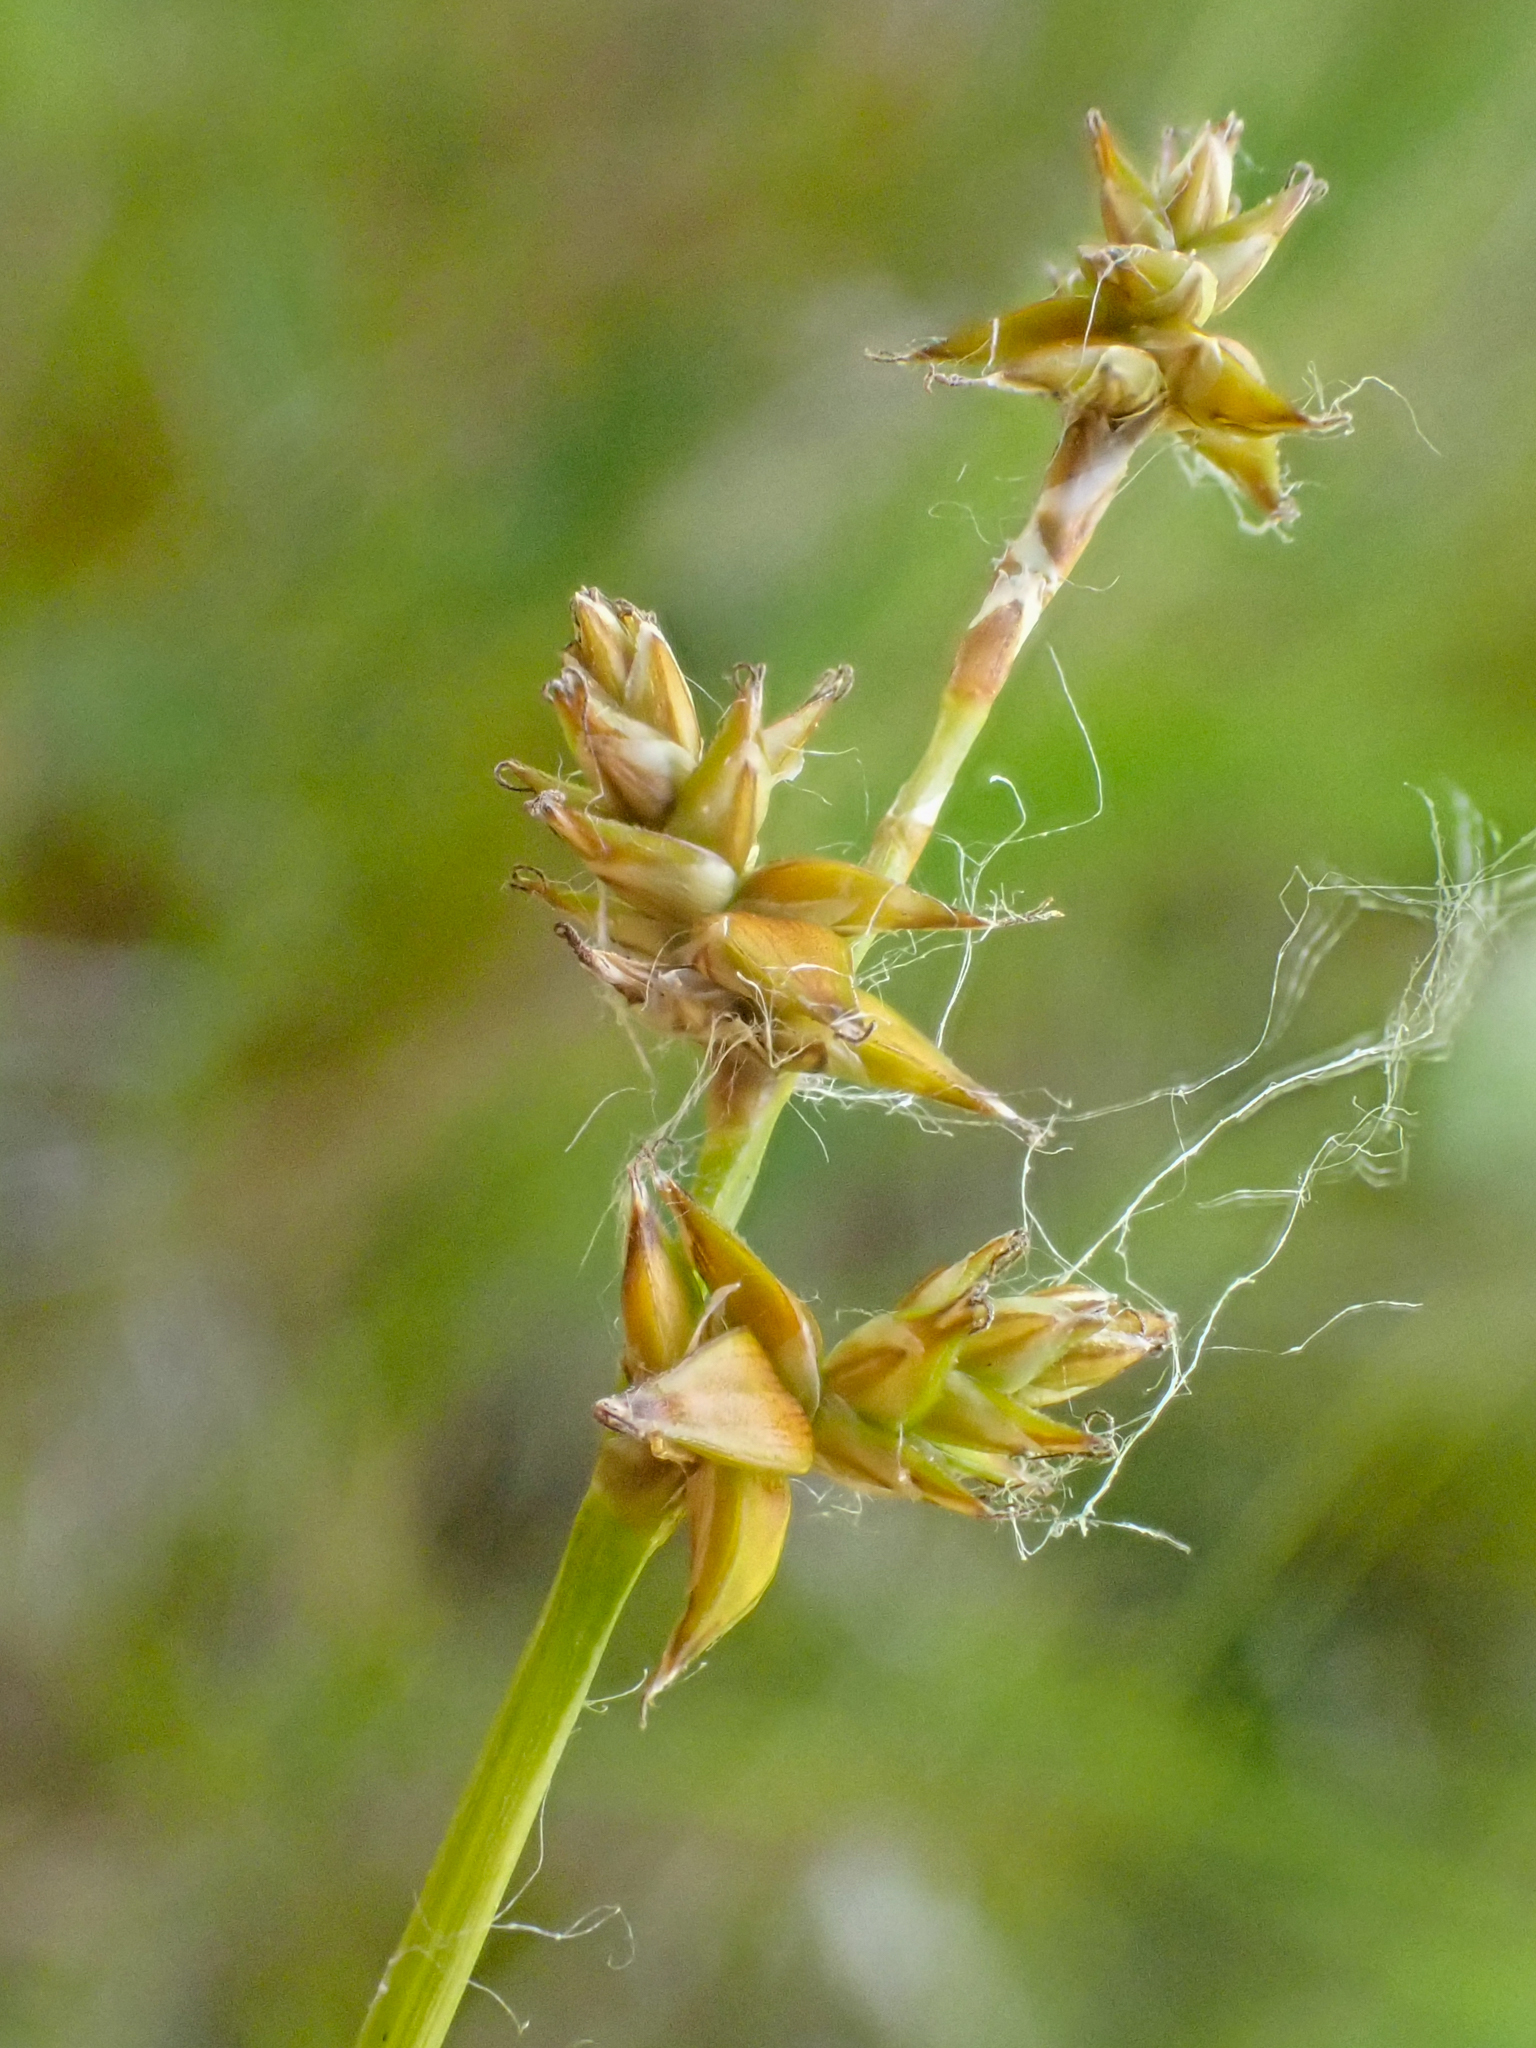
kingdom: Plantae
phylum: Tracheophyta
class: Liliopsida
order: Poales
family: Cyperaceae
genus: Carex
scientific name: Carex interior
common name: Inland sedge
